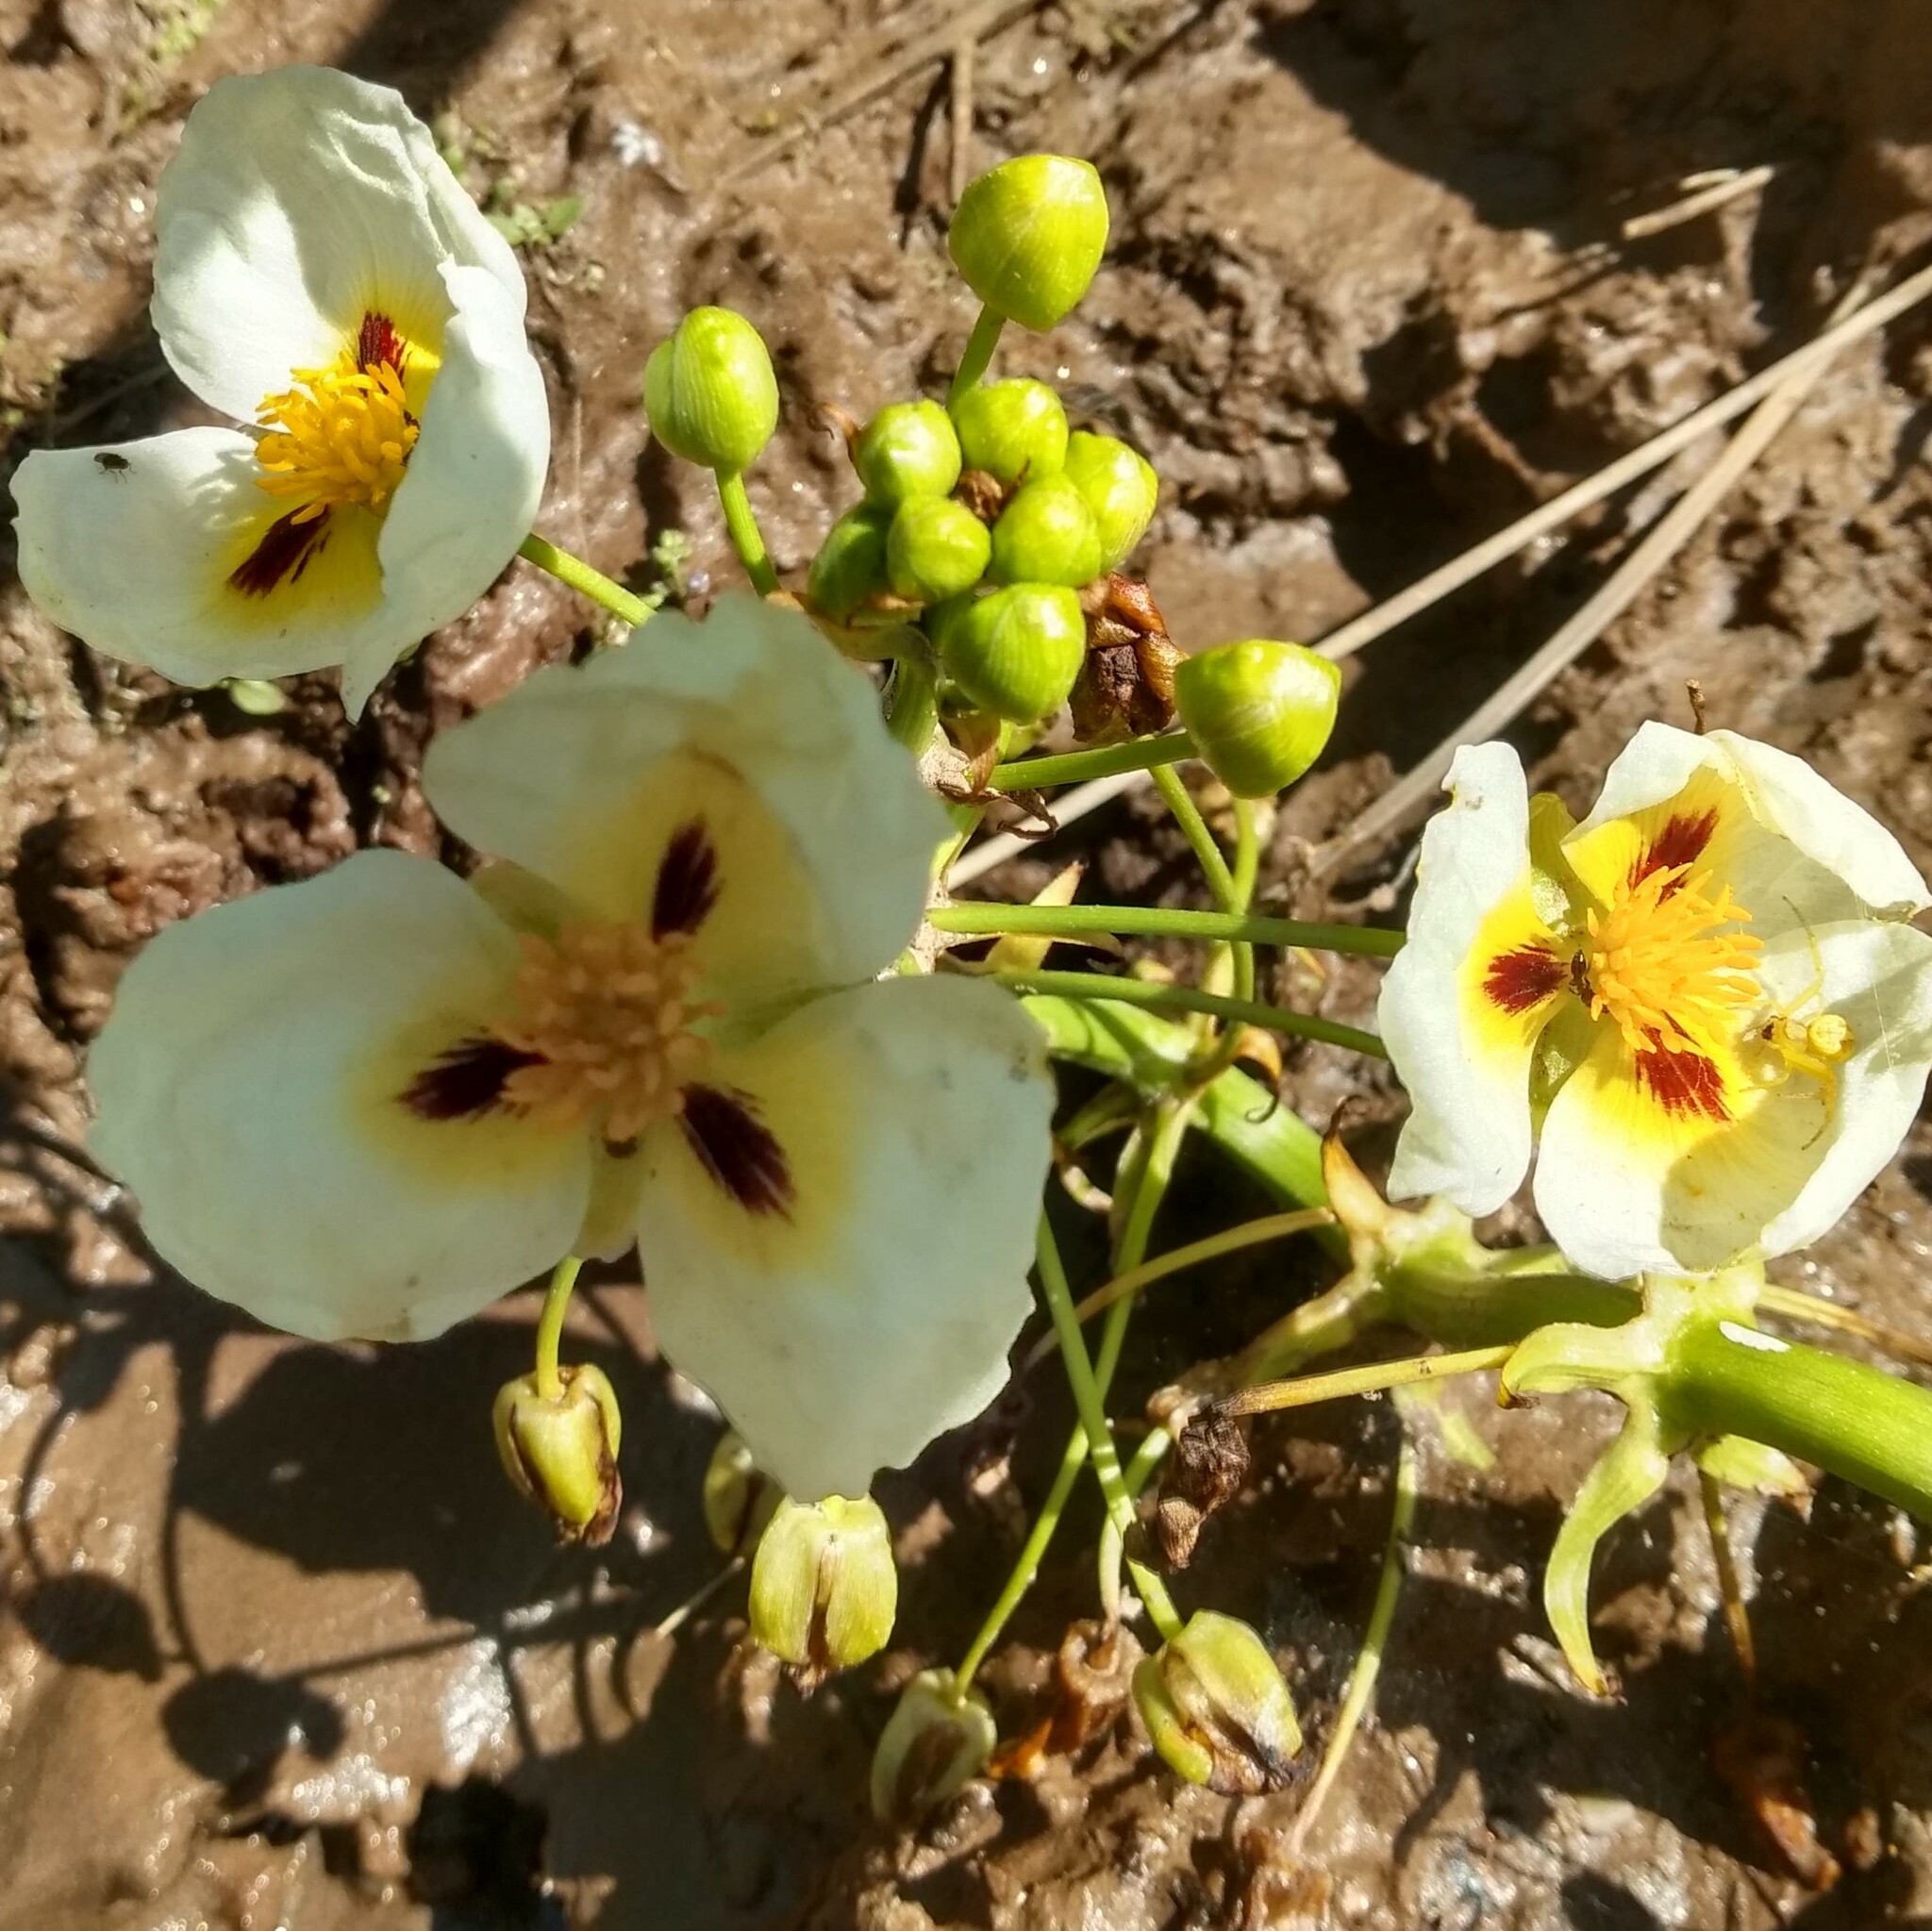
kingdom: Plantae
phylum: Tracheophyta
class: Liliopsida
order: Alismatales
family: Alismataceae
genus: Sagittaria
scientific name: Sagittaria montevidensis
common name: Giant arrowhead
